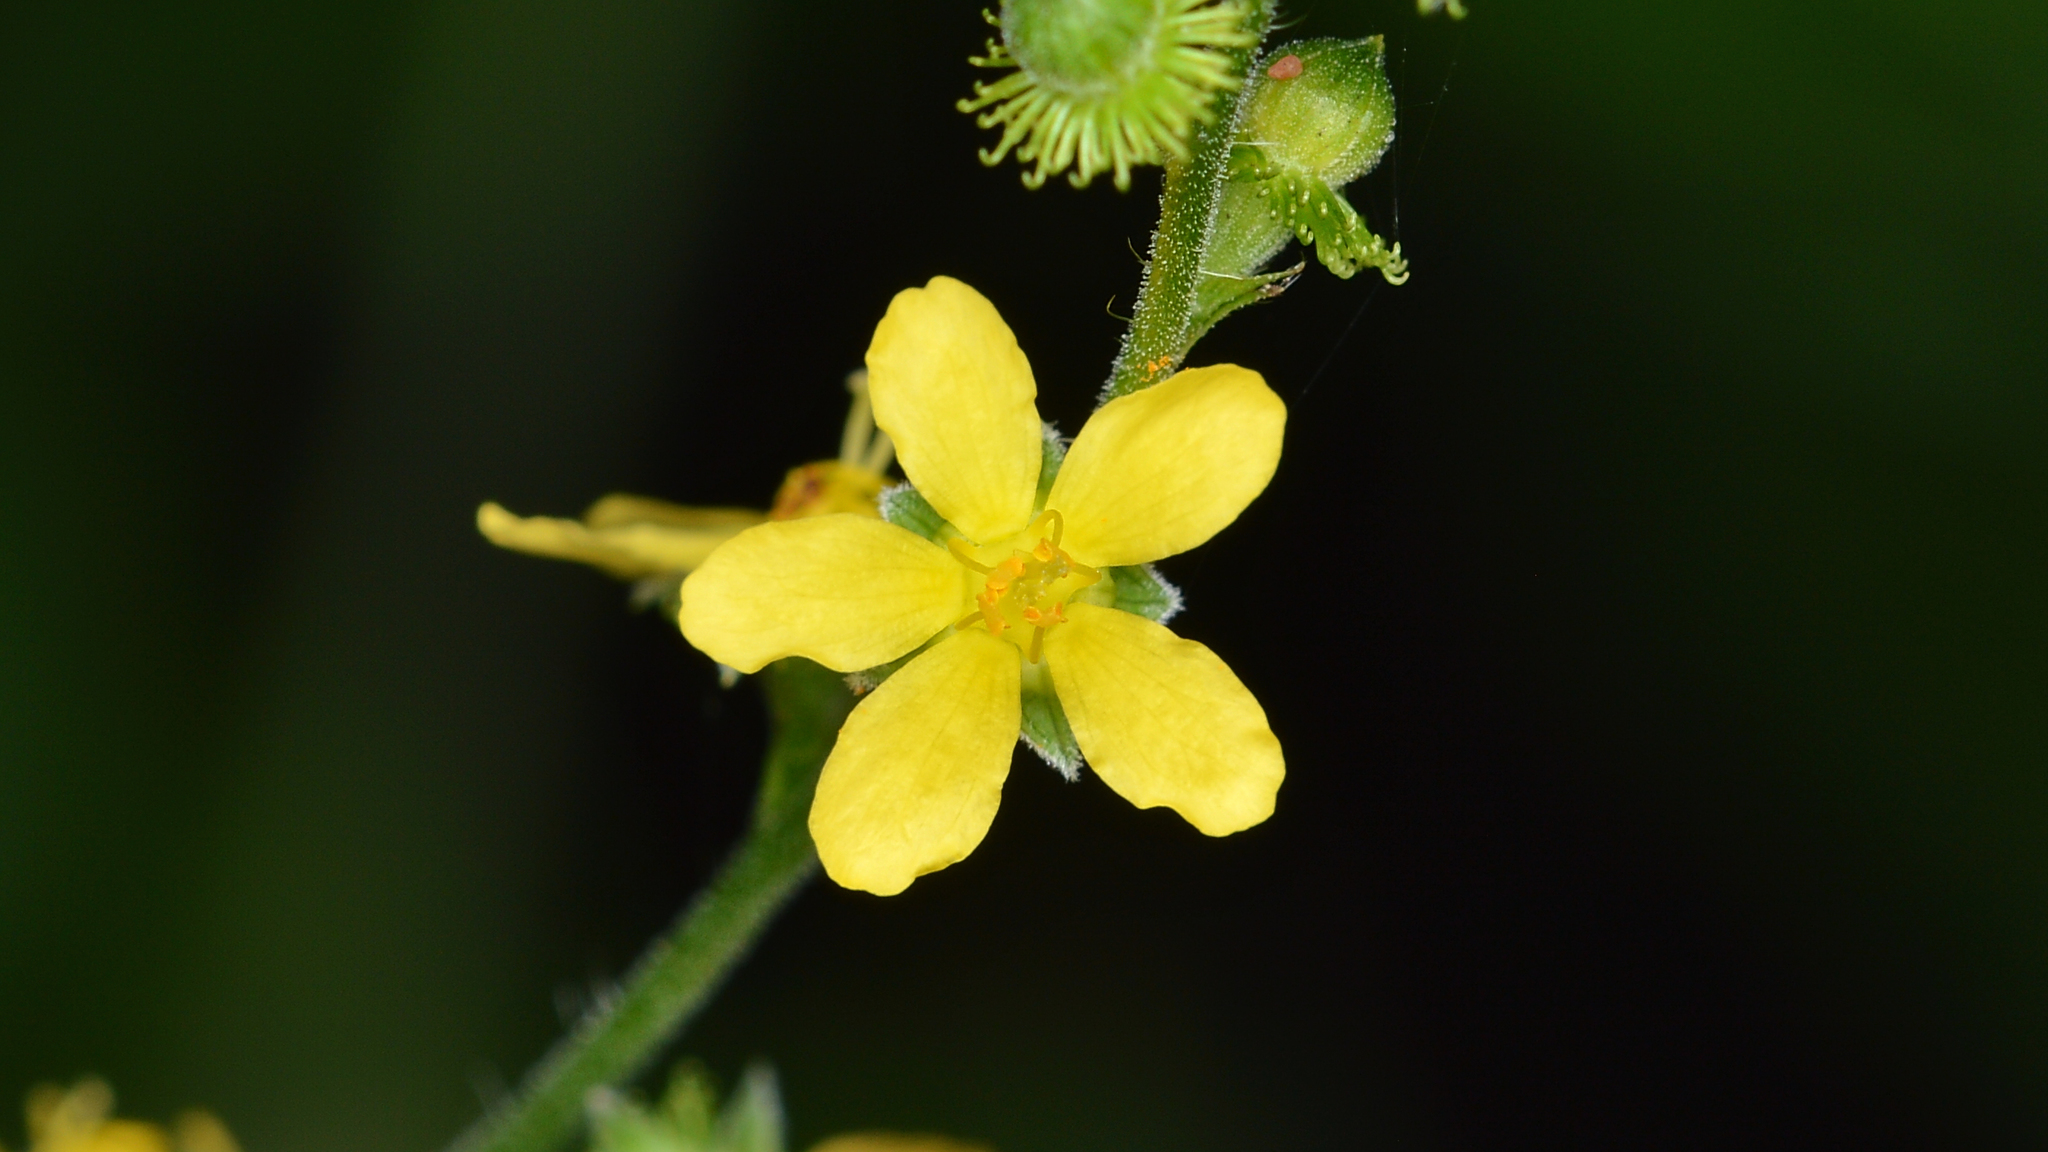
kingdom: Plantae
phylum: Tracheophyta
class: Magnoliopsida
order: Rosales
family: Rosaceae
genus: Agrimonia
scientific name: Agrimonia gryposepala
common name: Common agrimony
